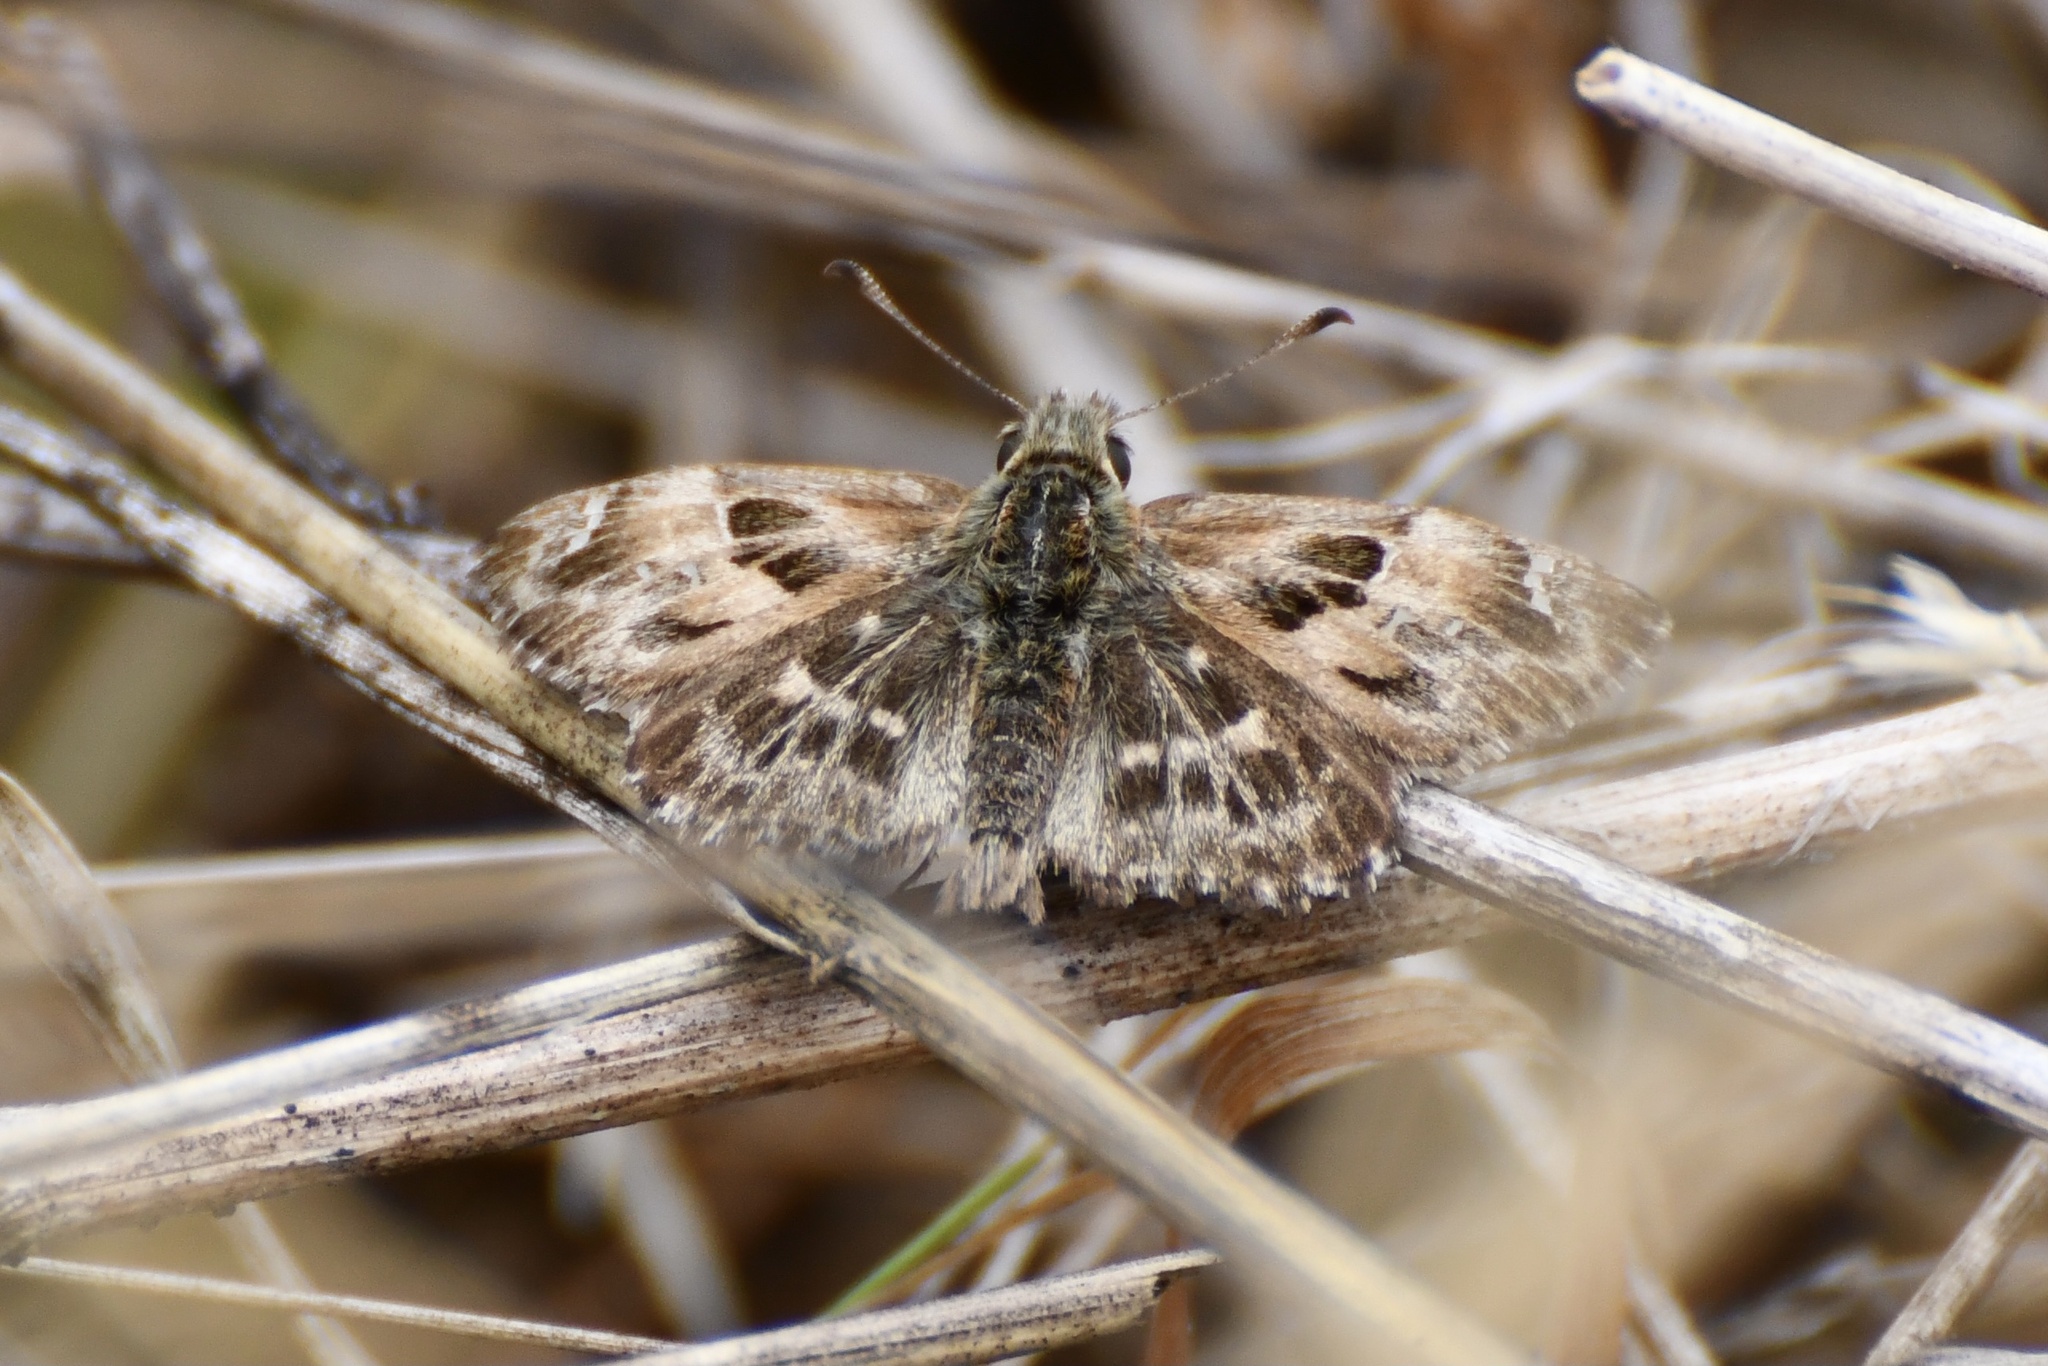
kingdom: Animalia
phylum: Arthropoda
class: Insecta
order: Lepidoptera
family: Hesperiidae
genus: Carcharodus
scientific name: Carcharodus alceae
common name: Mallow skipper
